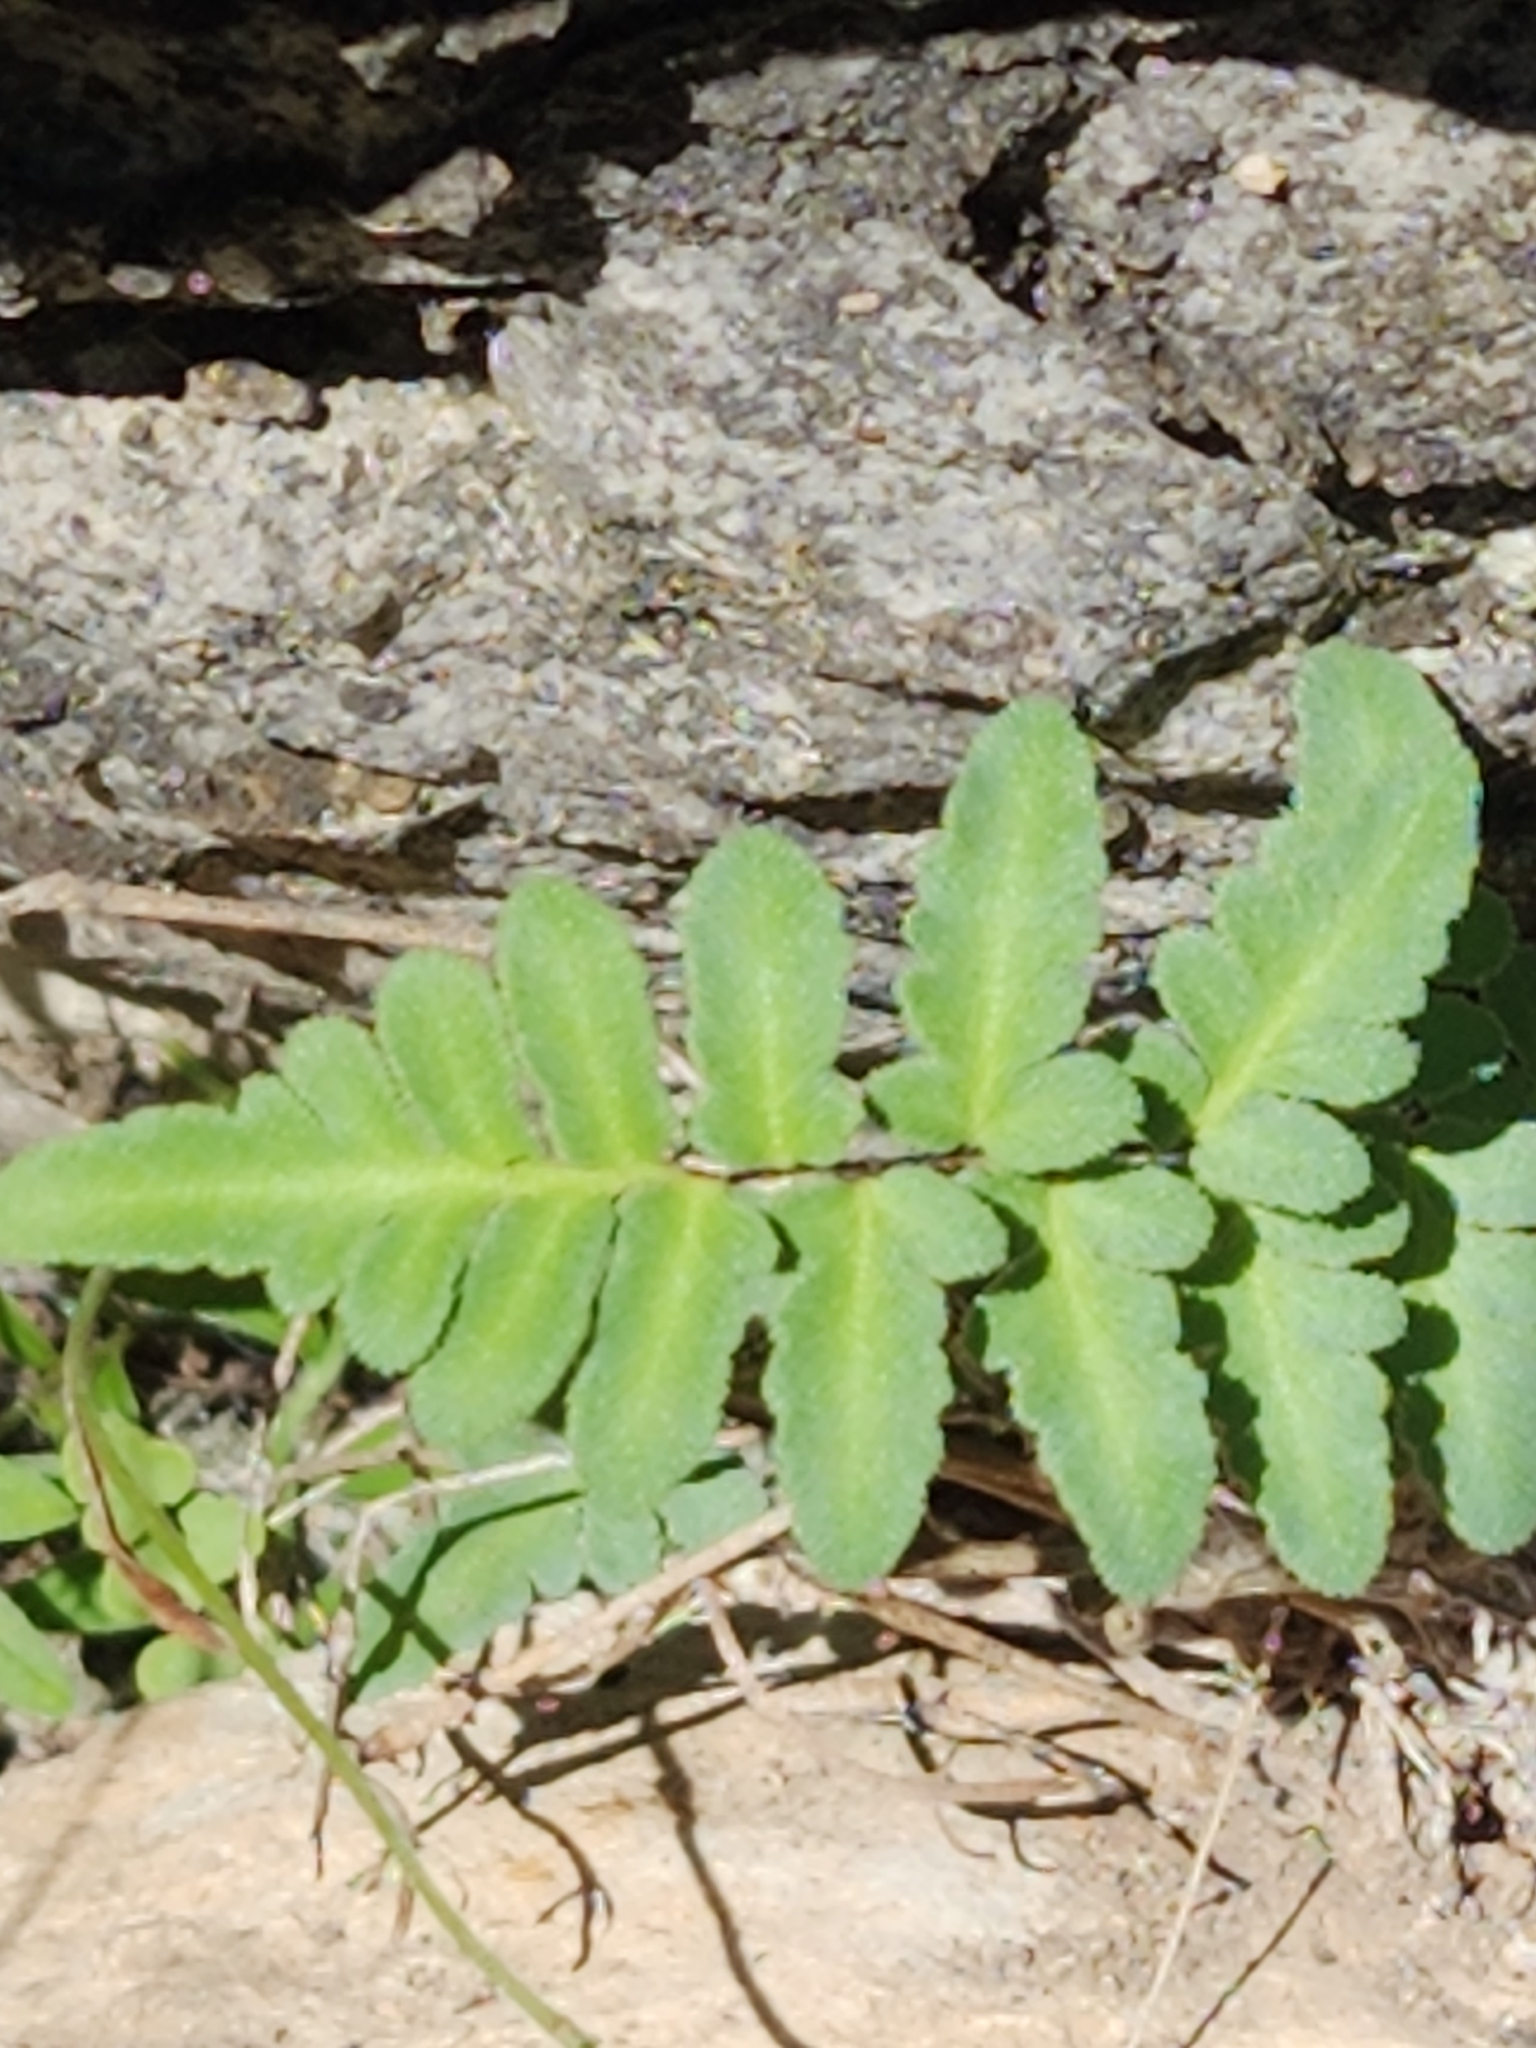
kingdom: Plantae
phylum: Tracheophyta
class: Polypodiopsida
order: Polypodiales
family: Pteridaceae
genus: Myriopteris
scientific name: Myriopteris scabra
